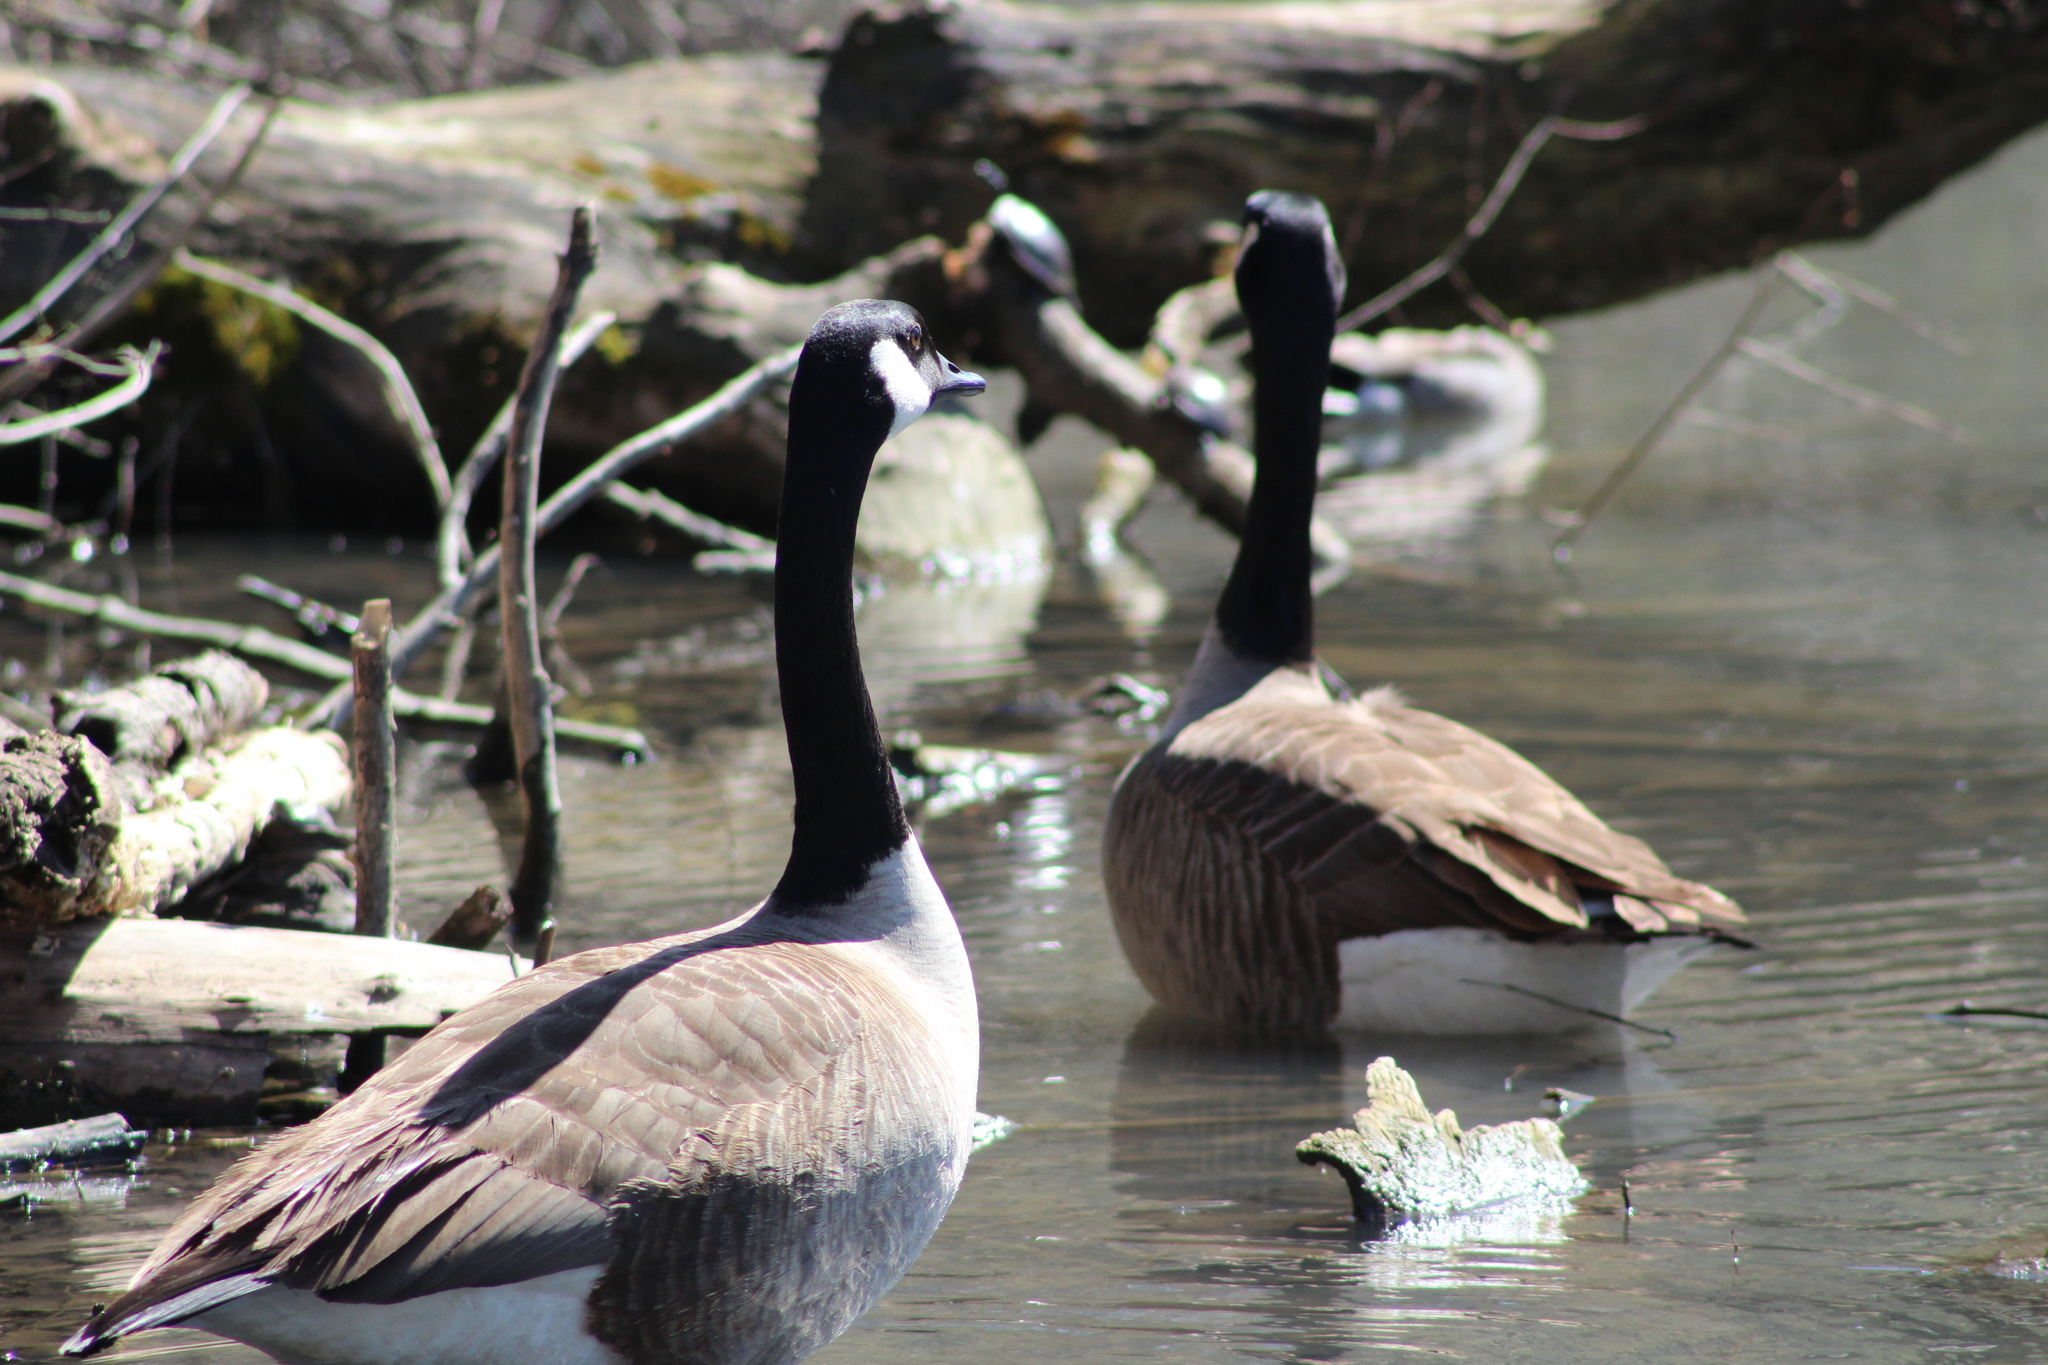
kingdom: Animalia
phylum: Chordata
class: Aves
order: Anseriformes
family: Anatidae
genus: Branta
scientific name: Branta canadensis
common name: Canada goose
